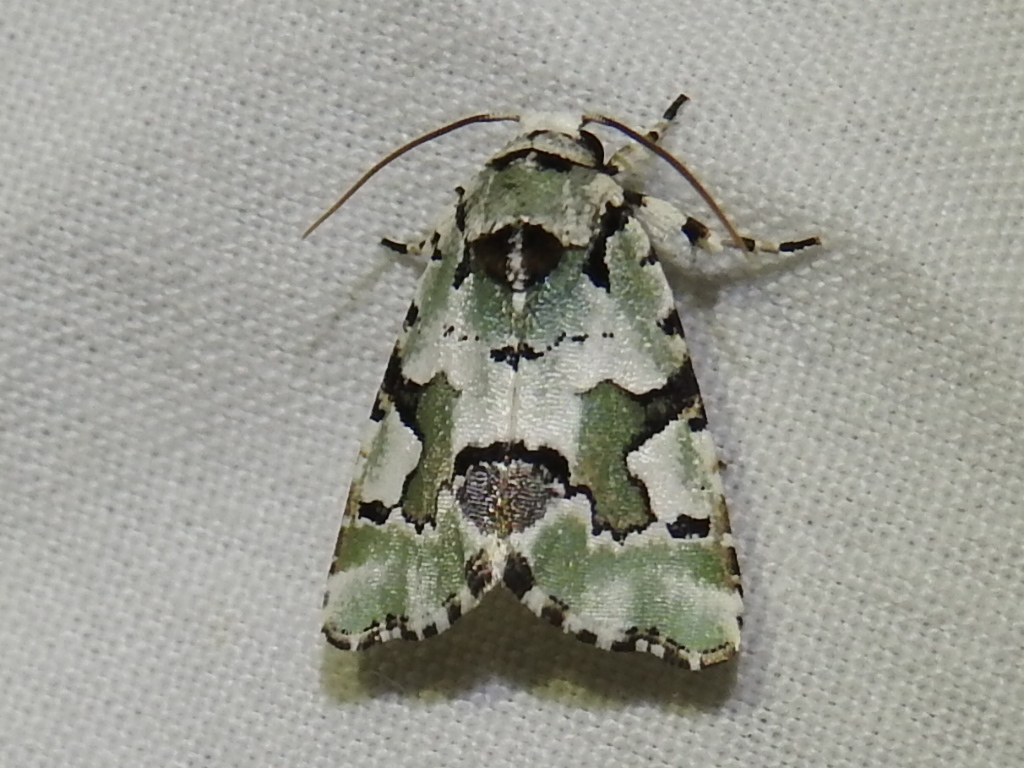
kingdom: Animalia
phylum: Arthropoda
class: Insecta
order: Lepidoptera
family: Noctuidae
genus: Emarginea
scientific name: Emarginea percara
